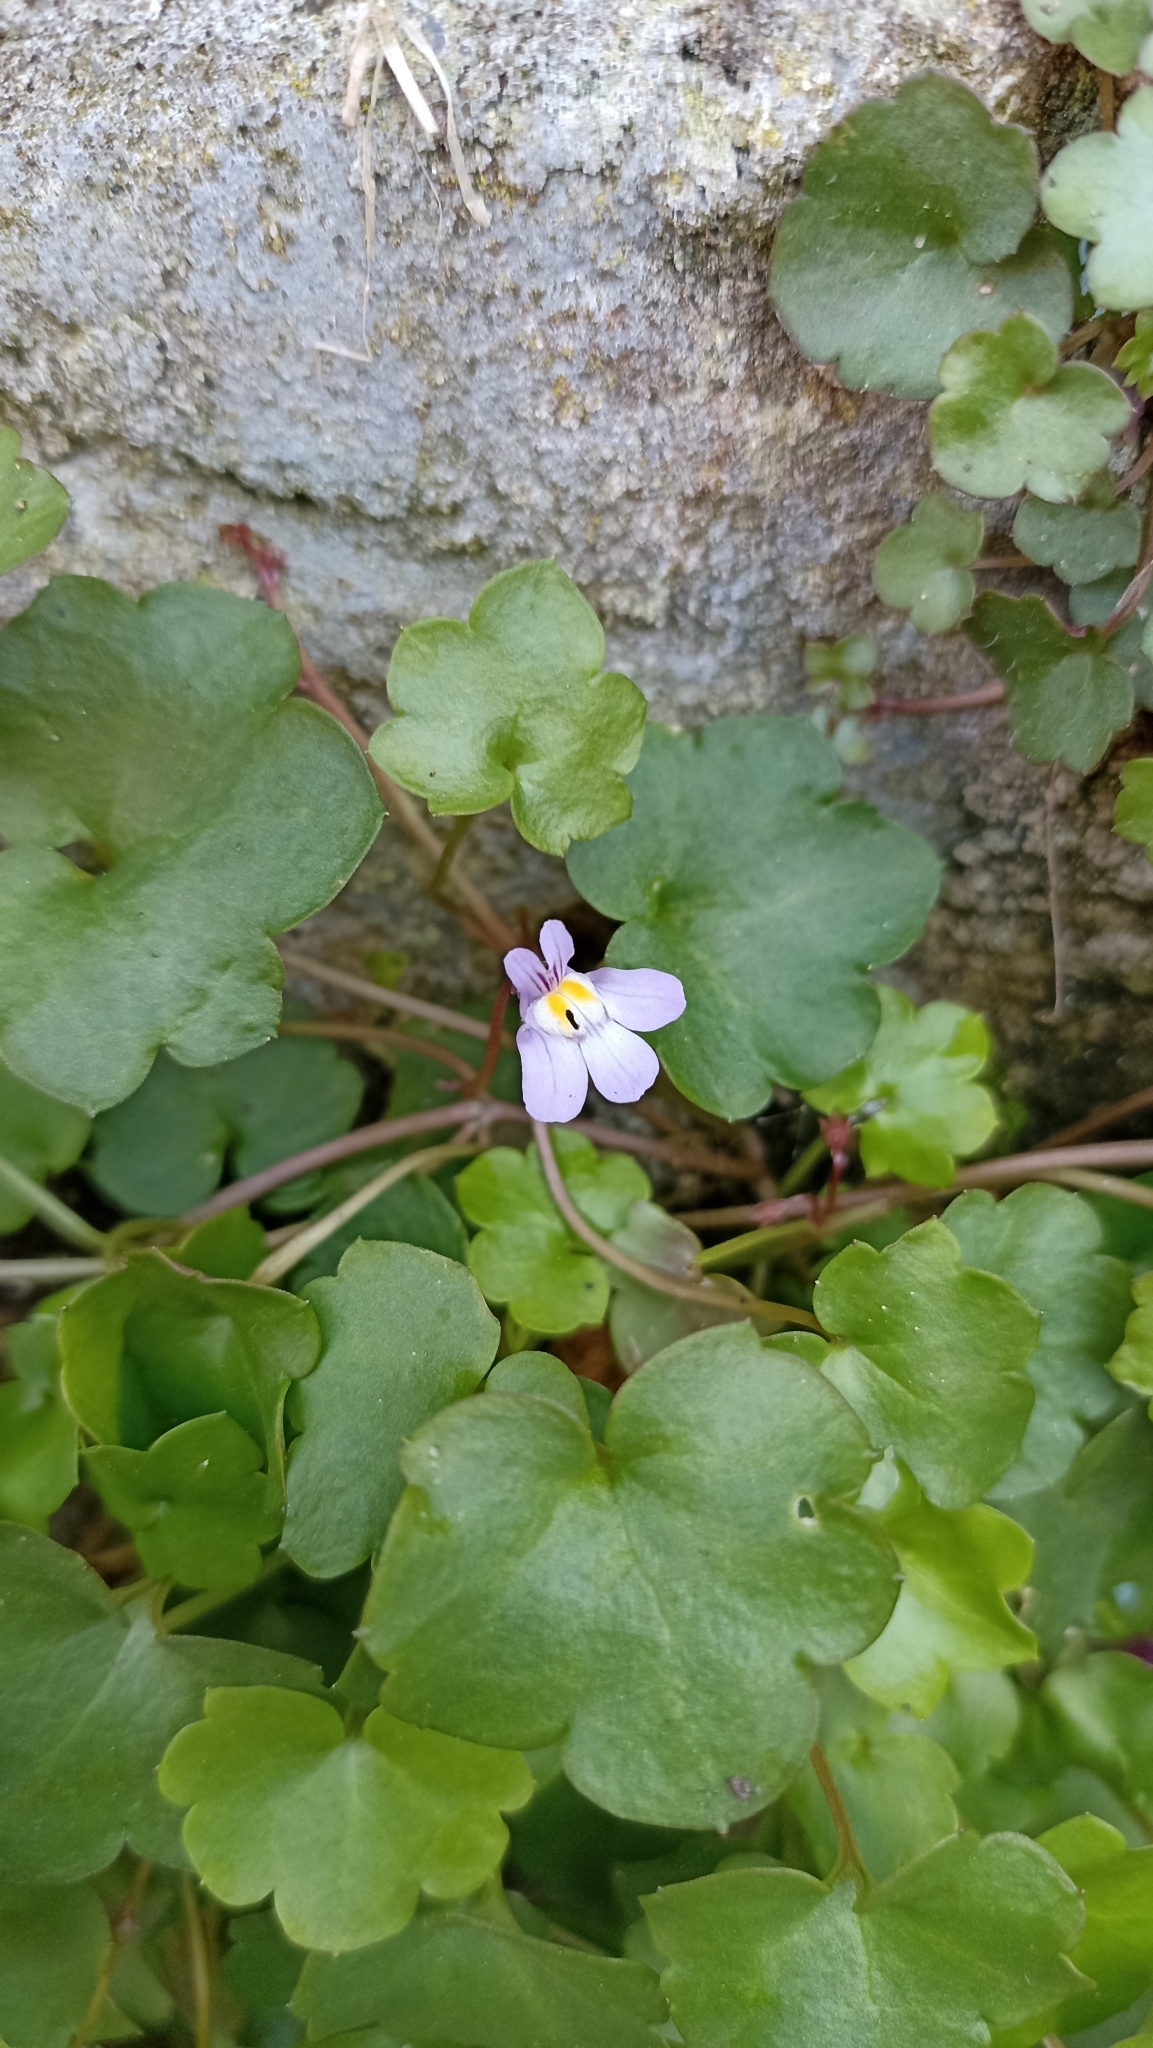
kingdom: Plantae
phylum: Tracheophyta
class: Magnoliopsida
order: Lamiales
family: Plantaginaceae
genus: Cymbalaria
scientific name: Cymbalaria muralis
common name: Ivy-leaved toadflax
